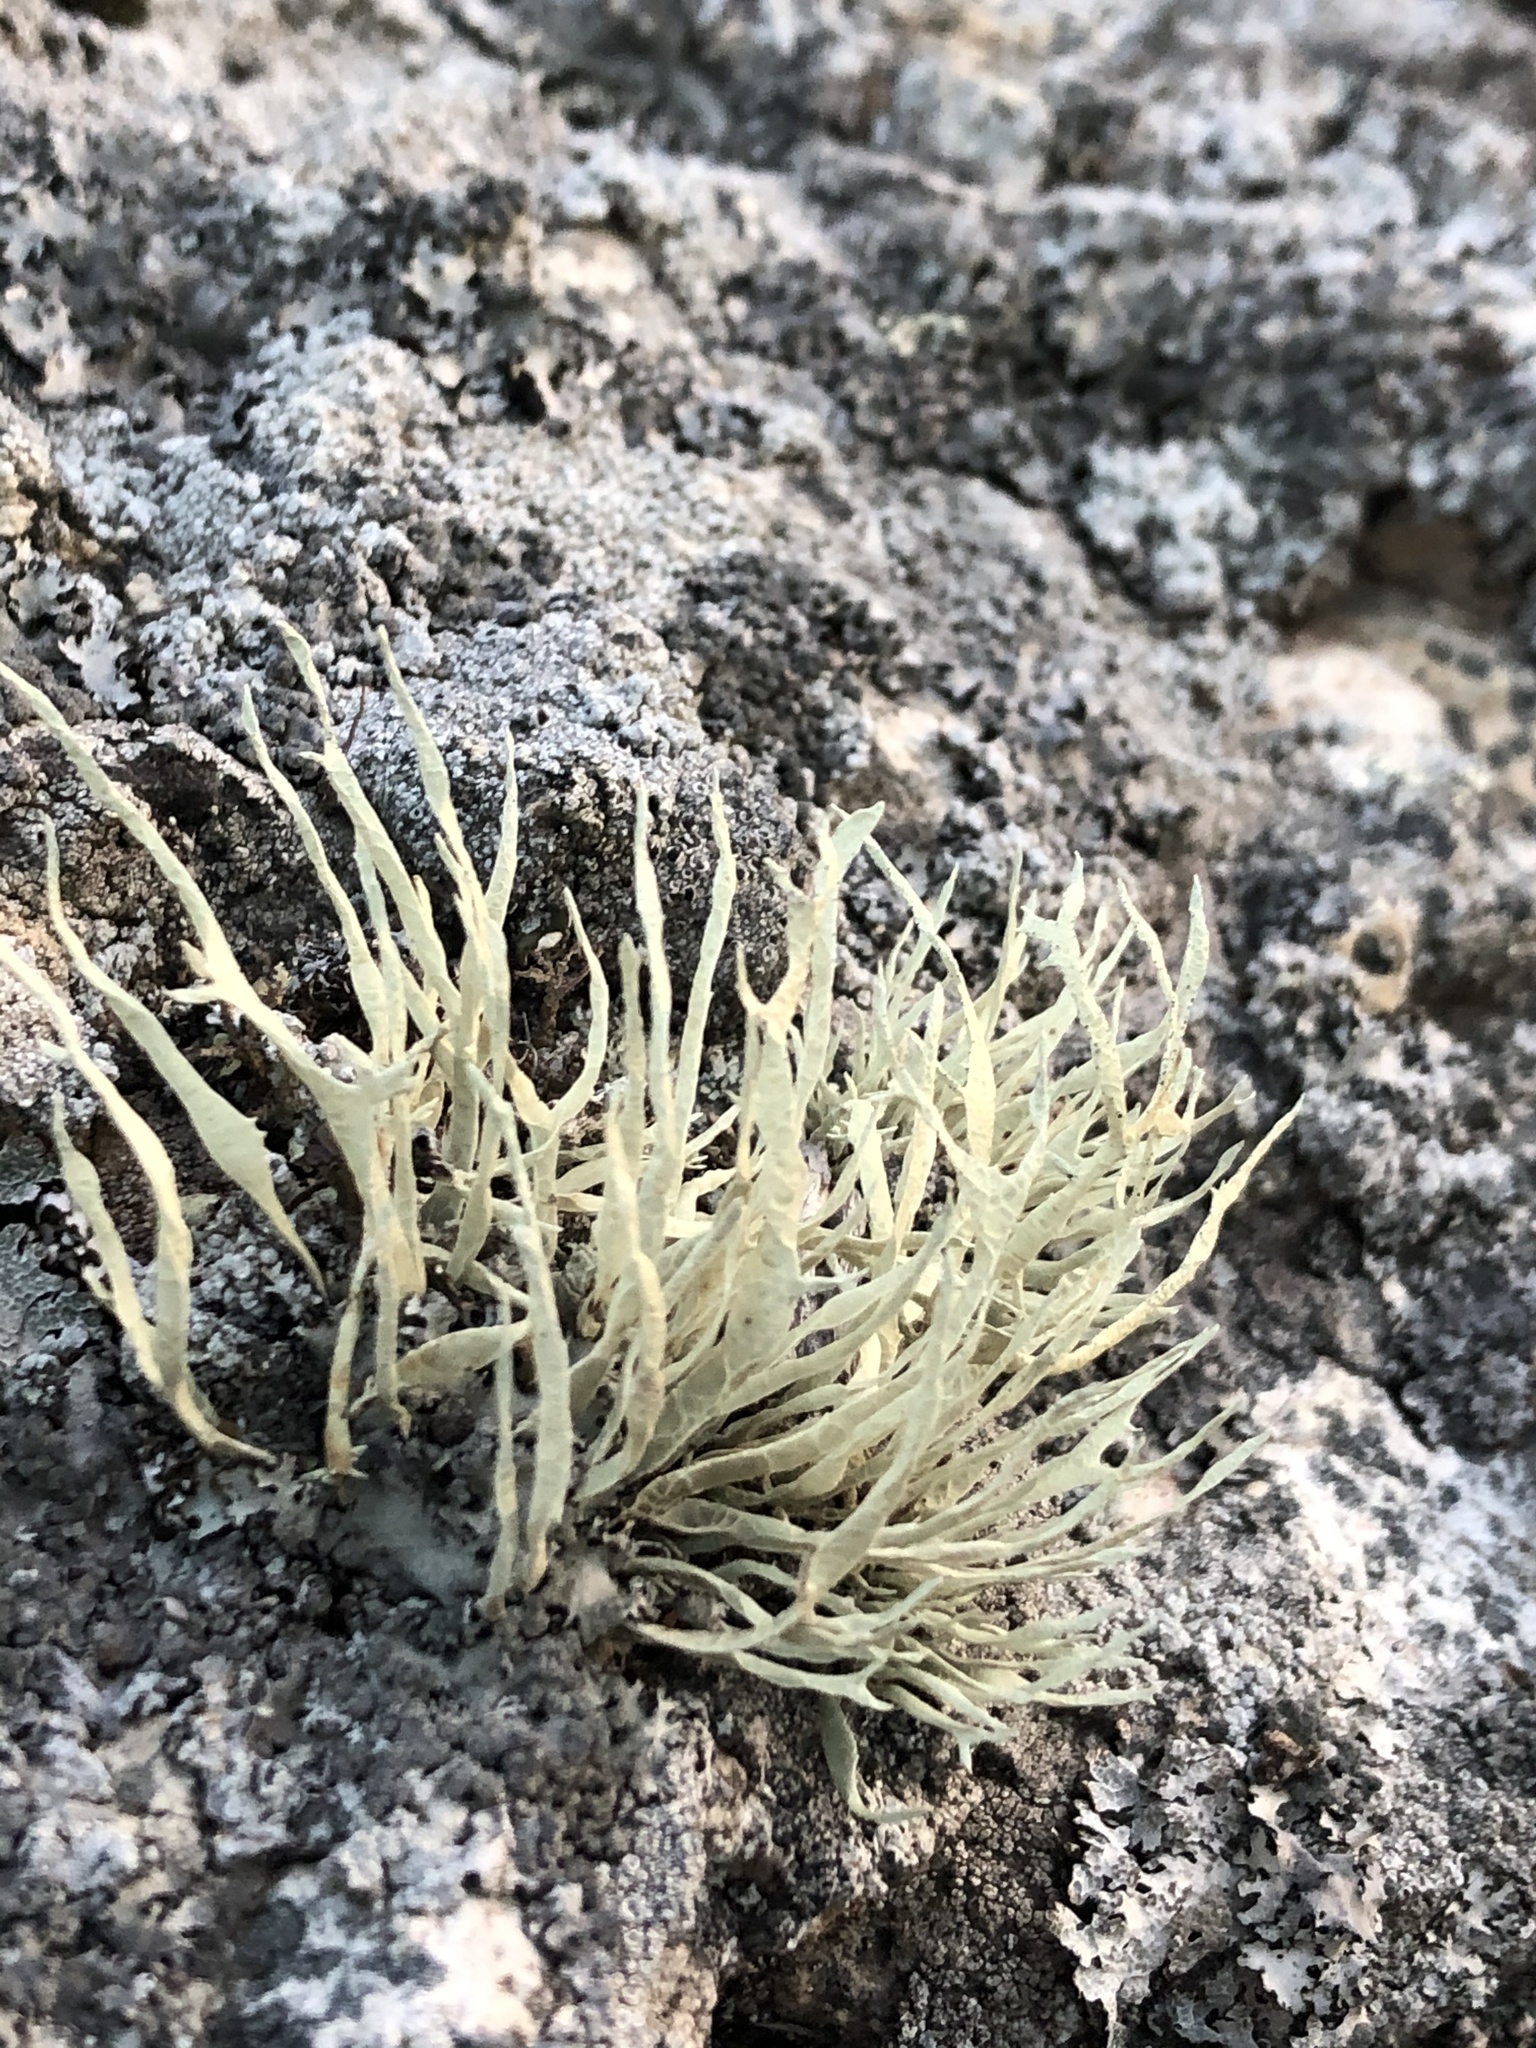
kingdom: Fungi
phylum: Ascomycota
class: Lecanoromycetes
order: Lecanorales
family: Ramalinaceae
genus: Niebla
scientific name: Niebla homalea
